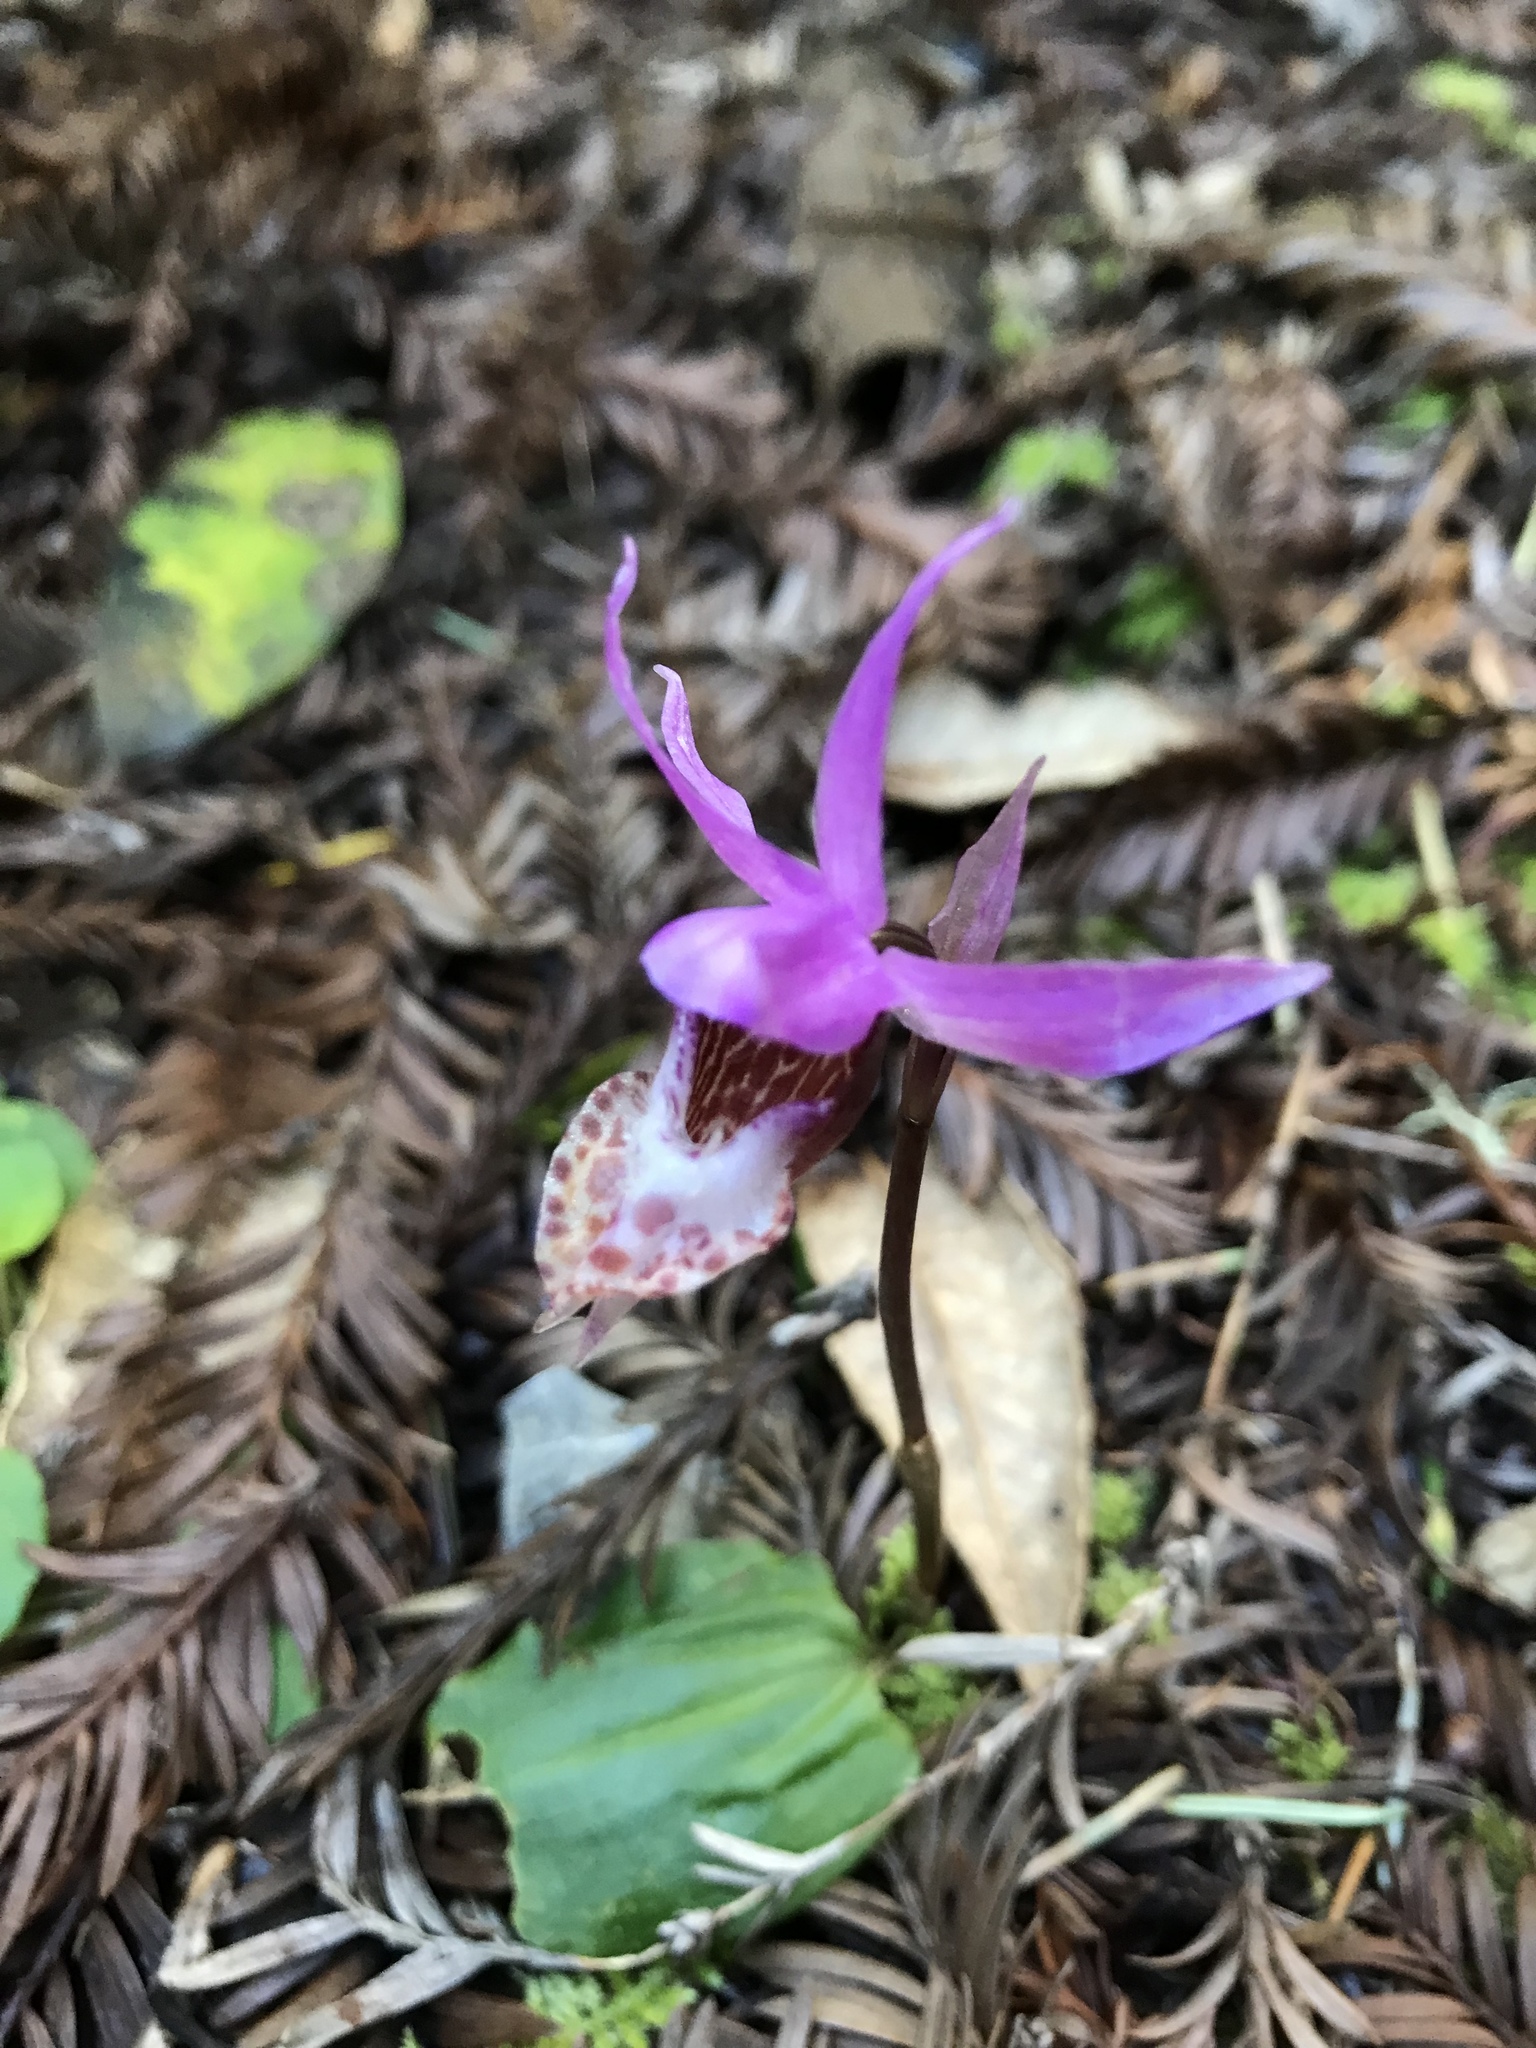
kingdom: Plantae
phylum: Tracheophyta
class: Liliopsida
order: Asparagales
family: Orchidaceae
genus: Calypso
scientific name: Calypso bulbosa
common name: Calypso
